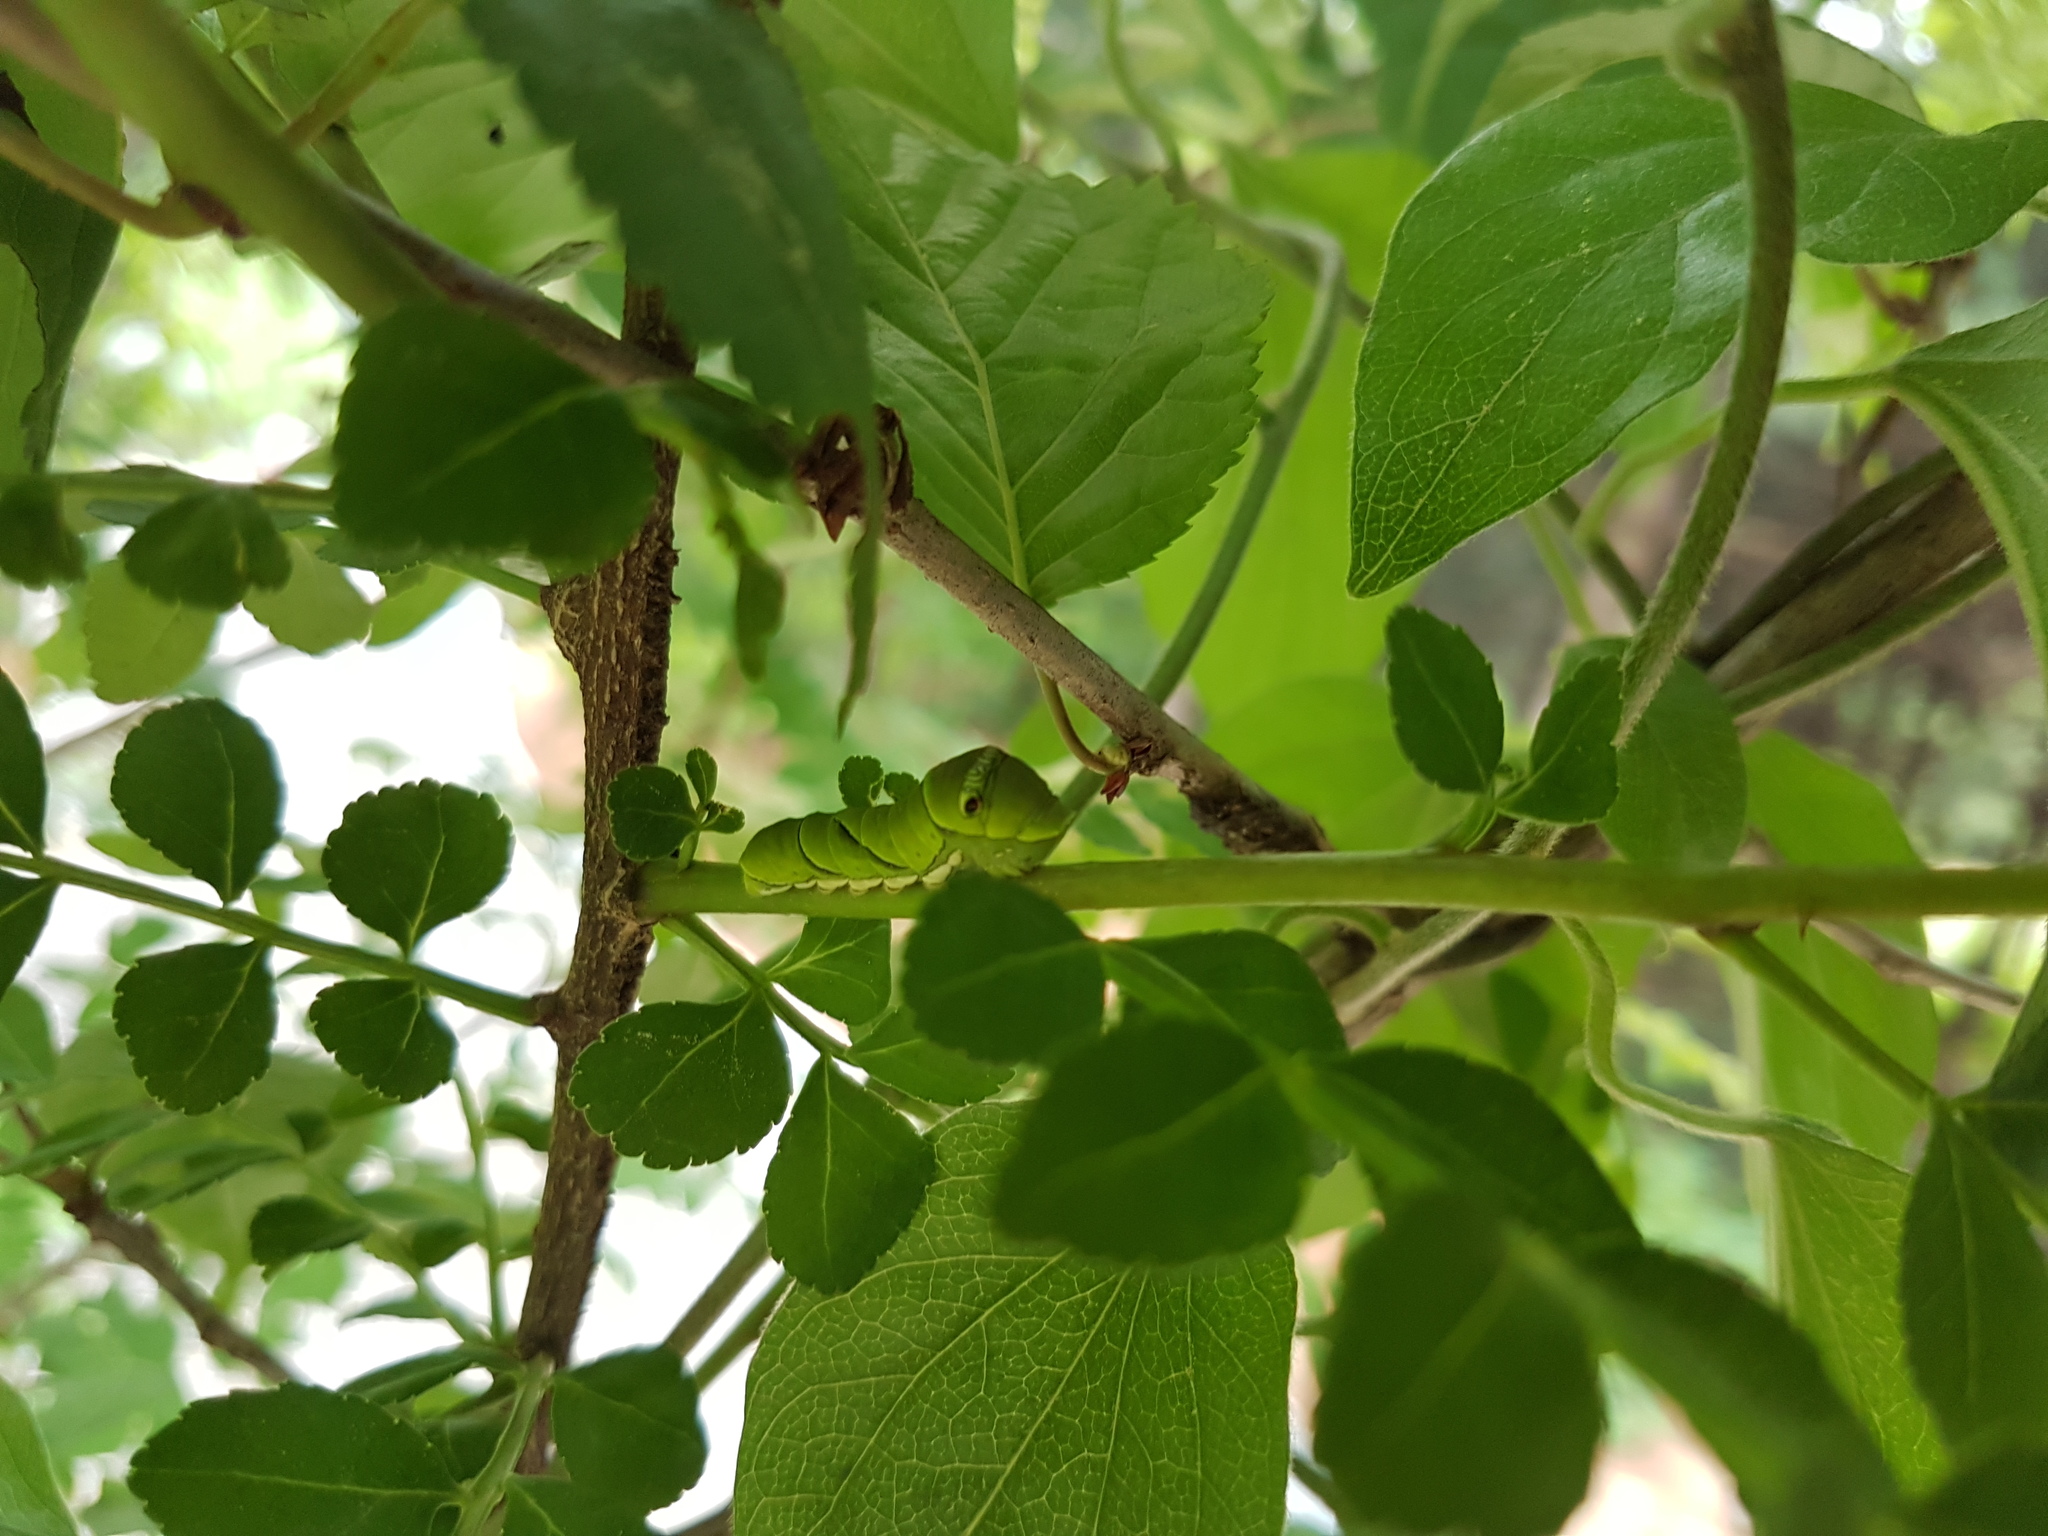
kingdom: Animalia
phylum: Arthropoda
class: Insecta
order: Lepidoptera
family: Papilionidae
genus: Papilio
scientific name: Papilio xuthus
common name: Asian swallowtail
